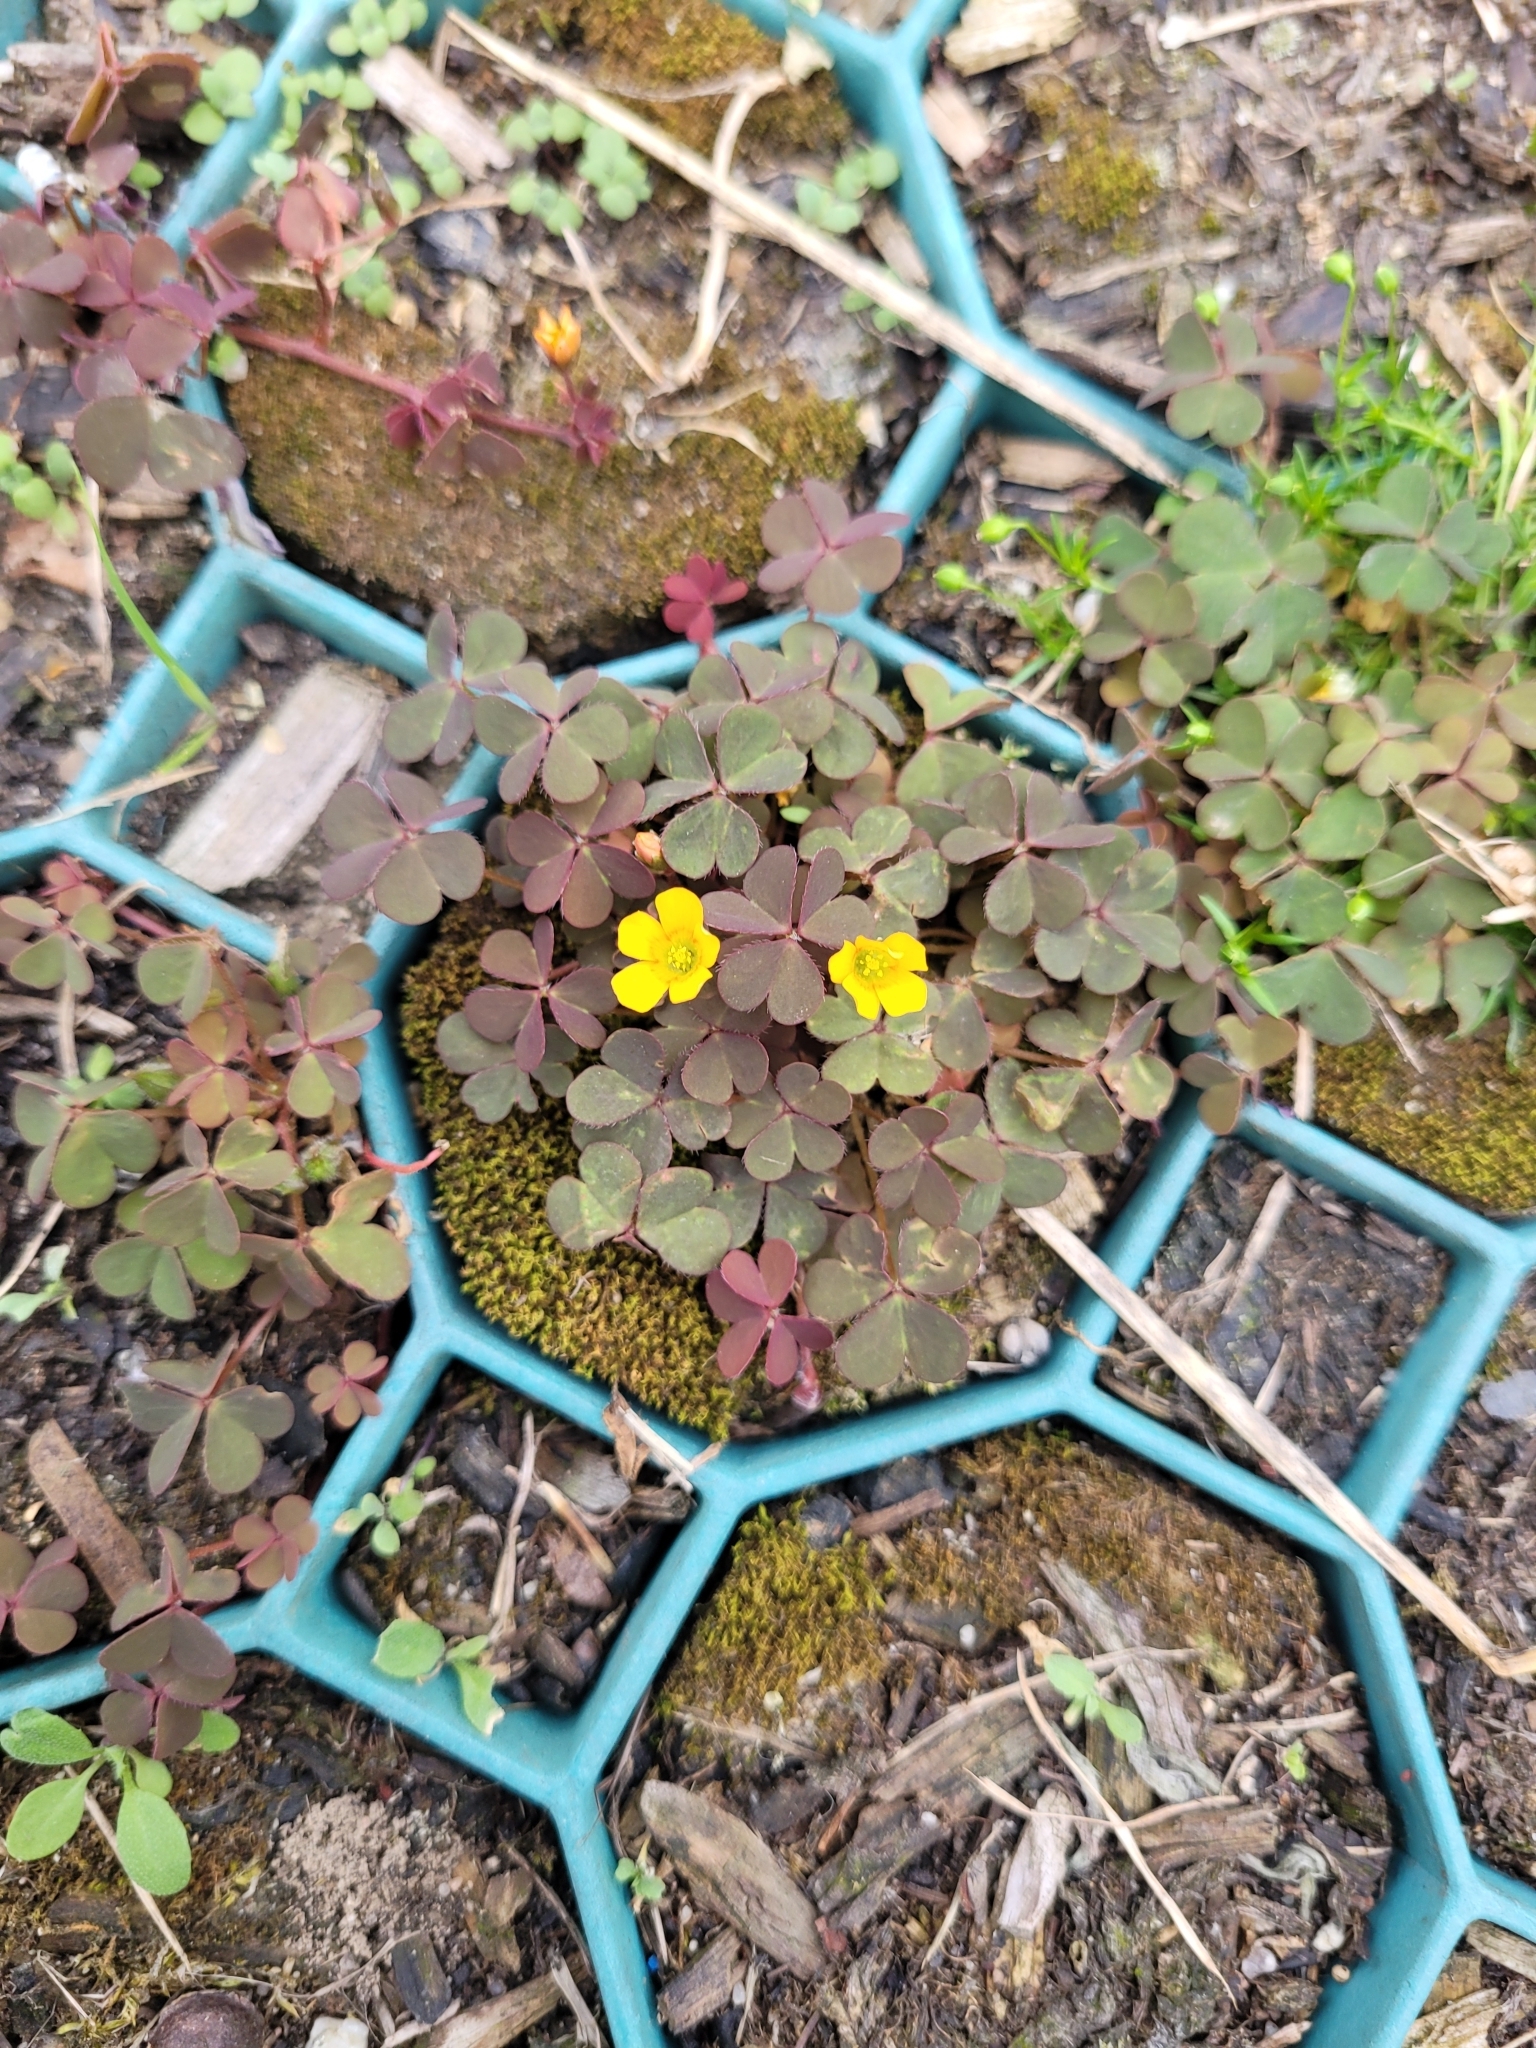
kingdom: Plantae
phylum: Tracheophyta
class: Magnoliopsida
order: Oxalidales
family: Oxalidaceae
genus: Oxalis
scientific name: Oxalis corniculata
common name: Procumbent yellow-sorrel
